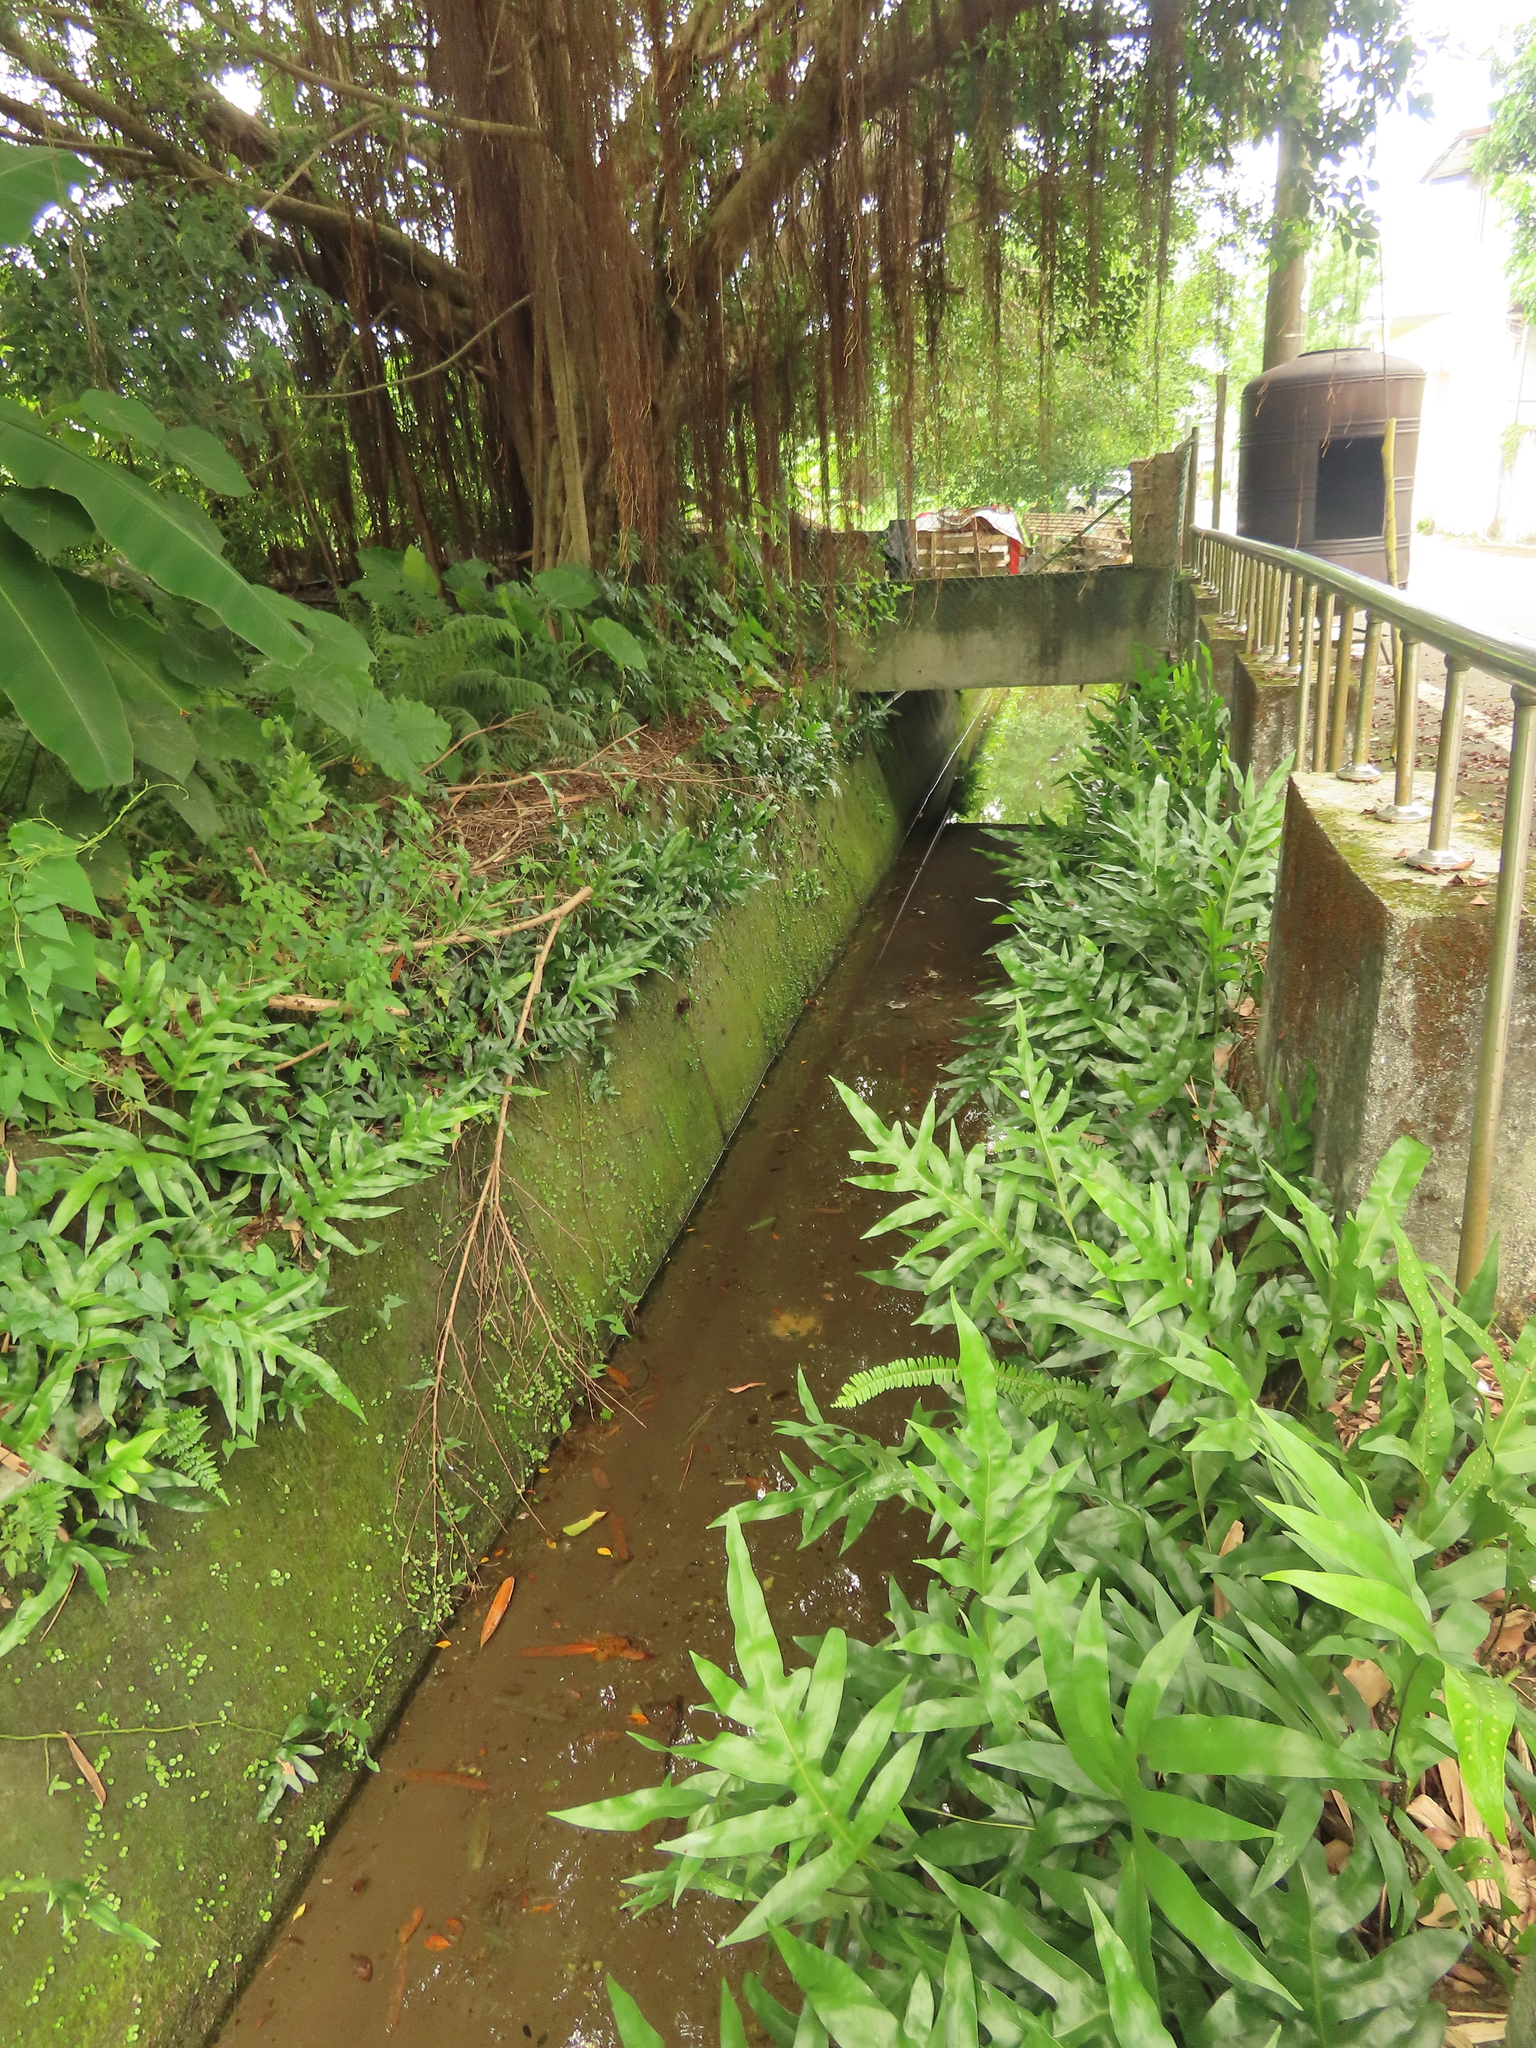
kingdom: Plantae
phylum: Tracheophyta
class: Polypodiopsida
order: Polypodiales
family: Polypodiaceae
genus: Microsorum
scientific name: Microsorum scolopendria
